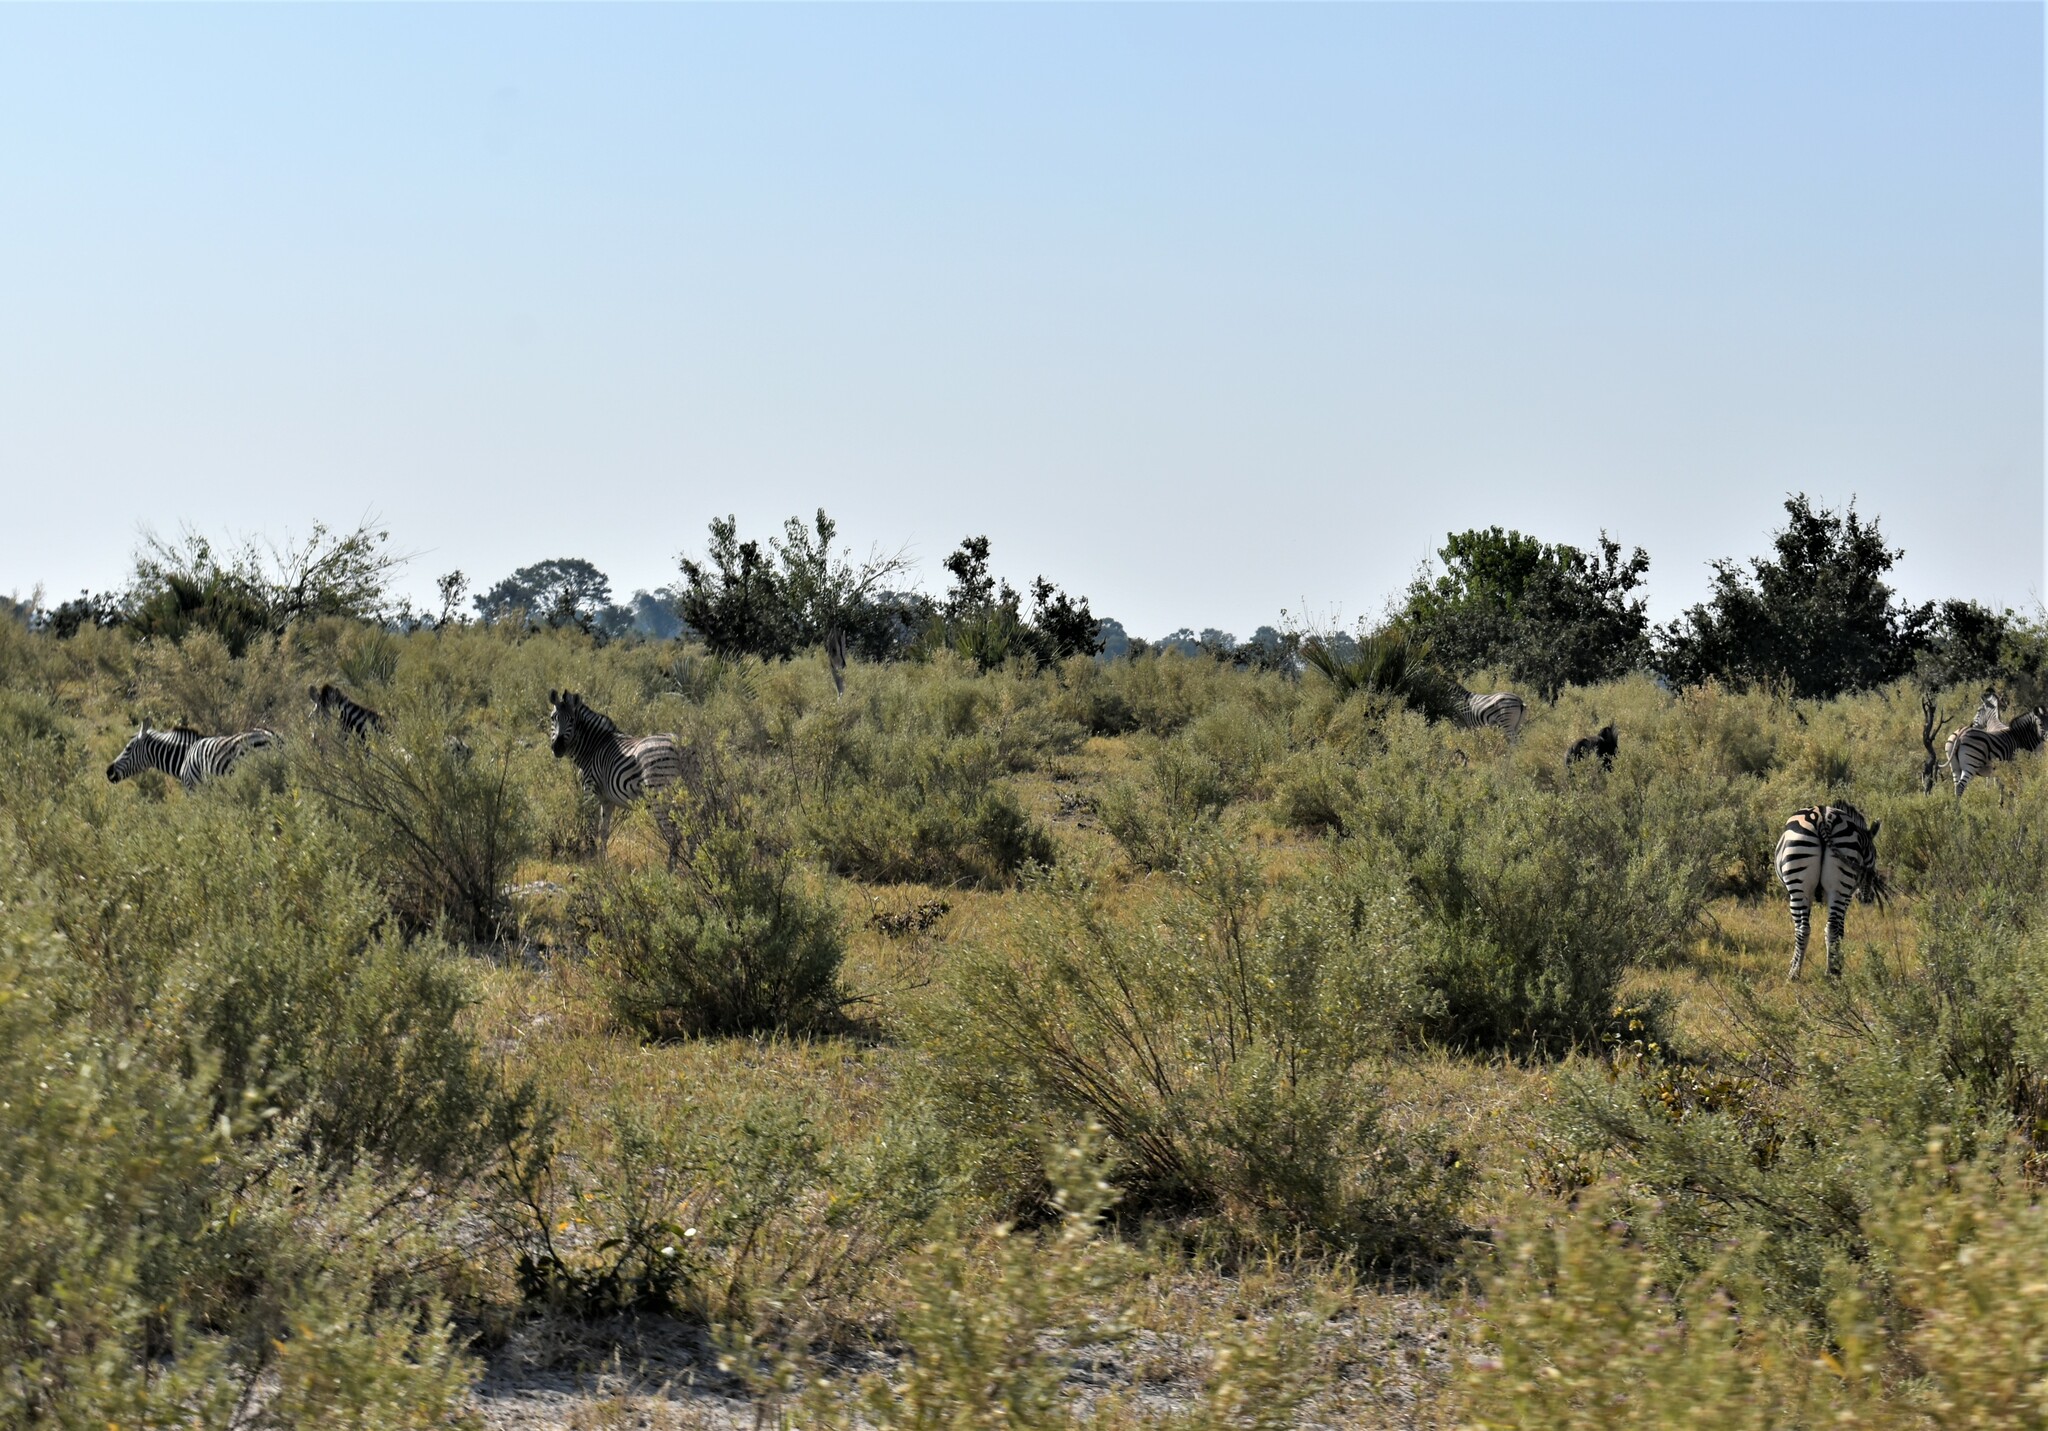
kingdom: Animalia
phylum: Chordata
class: Mammalia
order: Perissodactyla
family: Equidae
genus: Equus
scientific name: Equus quagga
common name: Plains zebra
